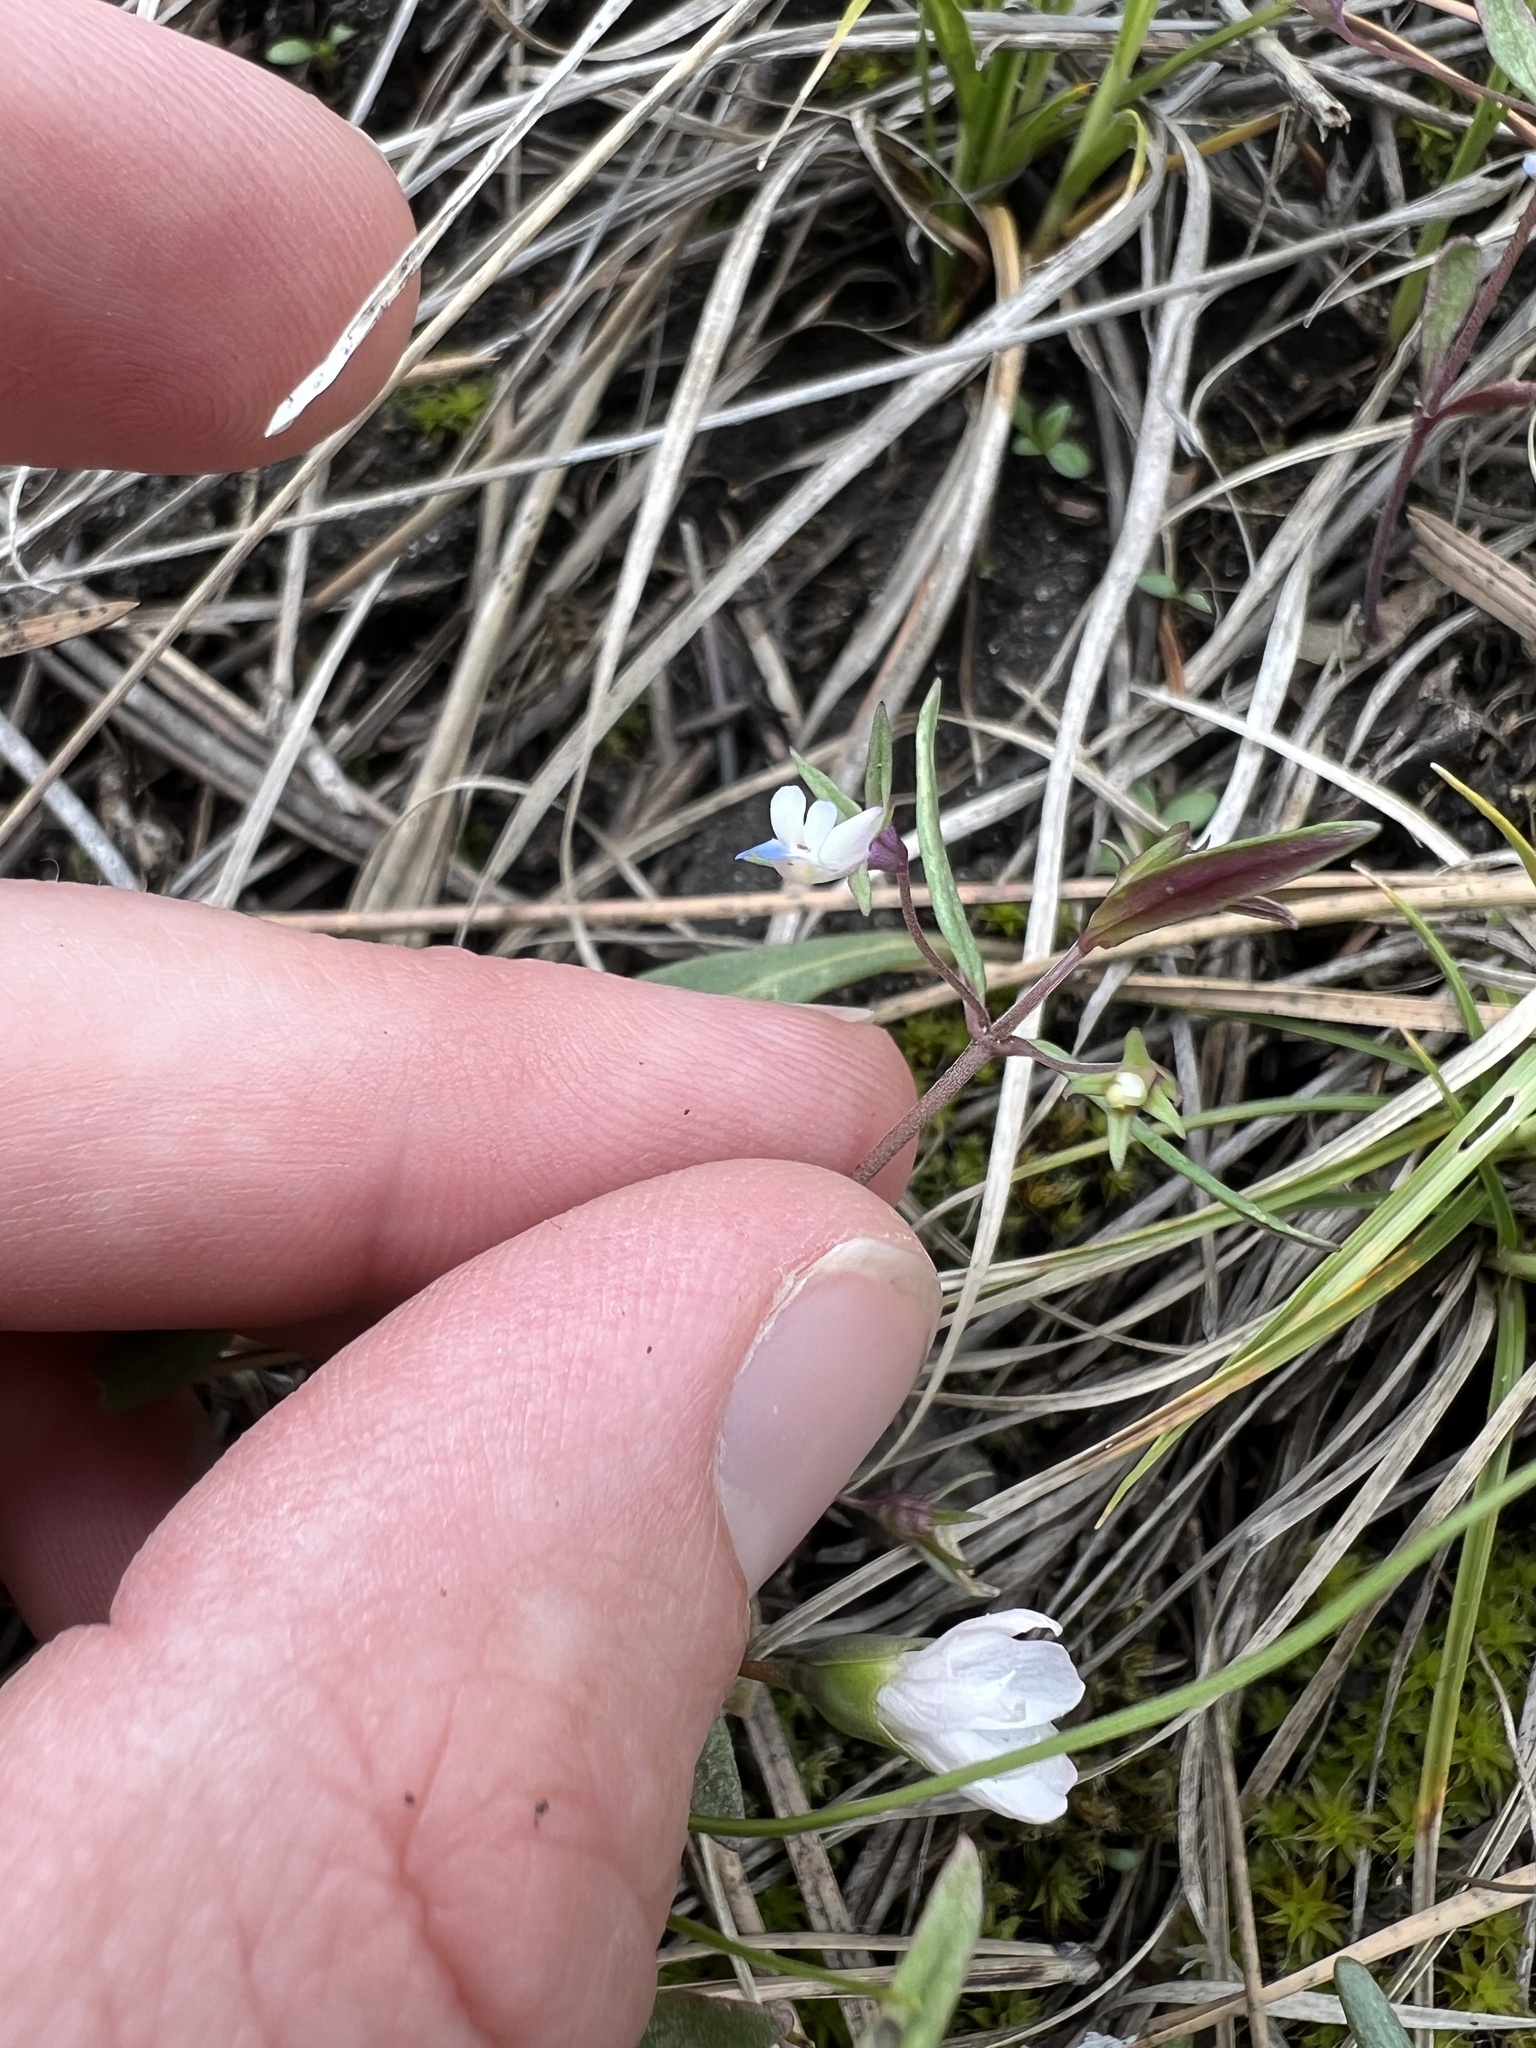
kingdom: Plantae
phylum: Tracheophyta
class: Magnoliopsida
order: Lamiales
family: Plantaginaceae
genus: Collinsia
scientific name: Collinsia parviflora
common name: Blue-lips
